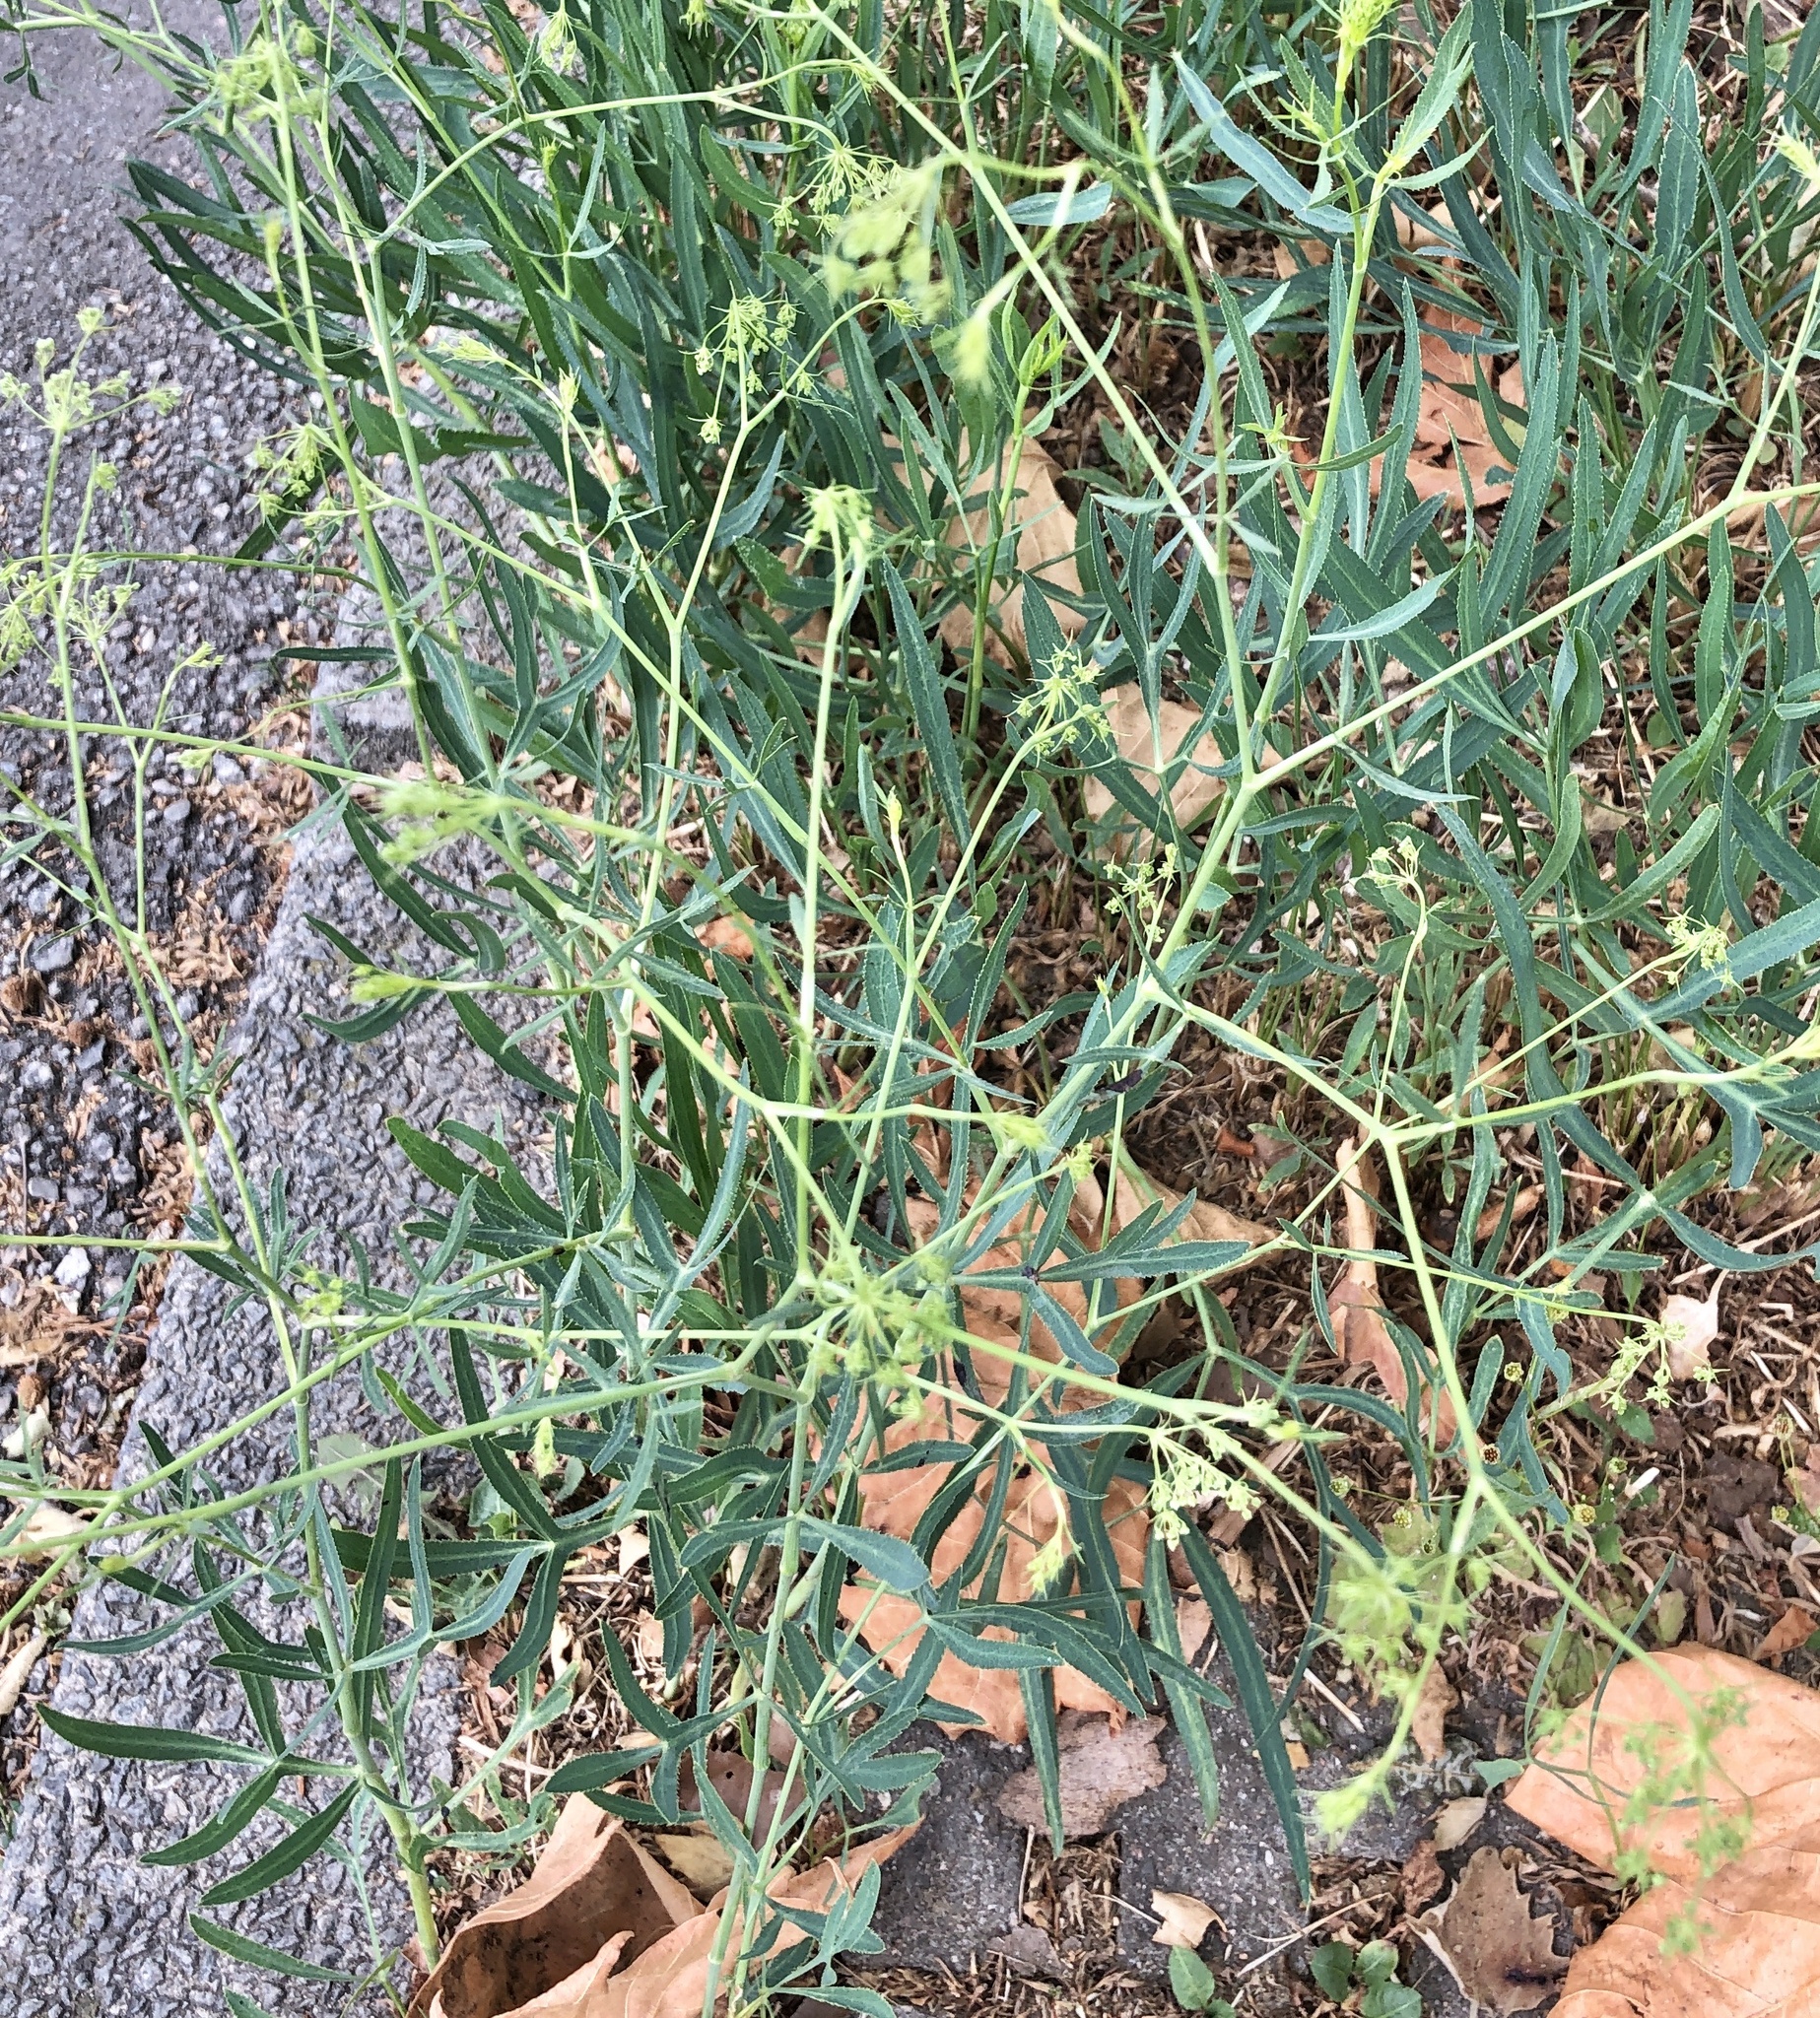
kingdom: Plantae
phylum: Tracheophyta
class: Magnoliopsida
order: Apiales
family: Apiaceae
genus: Falcaria
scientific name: Falcaria vulgaris
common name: Longleaf
